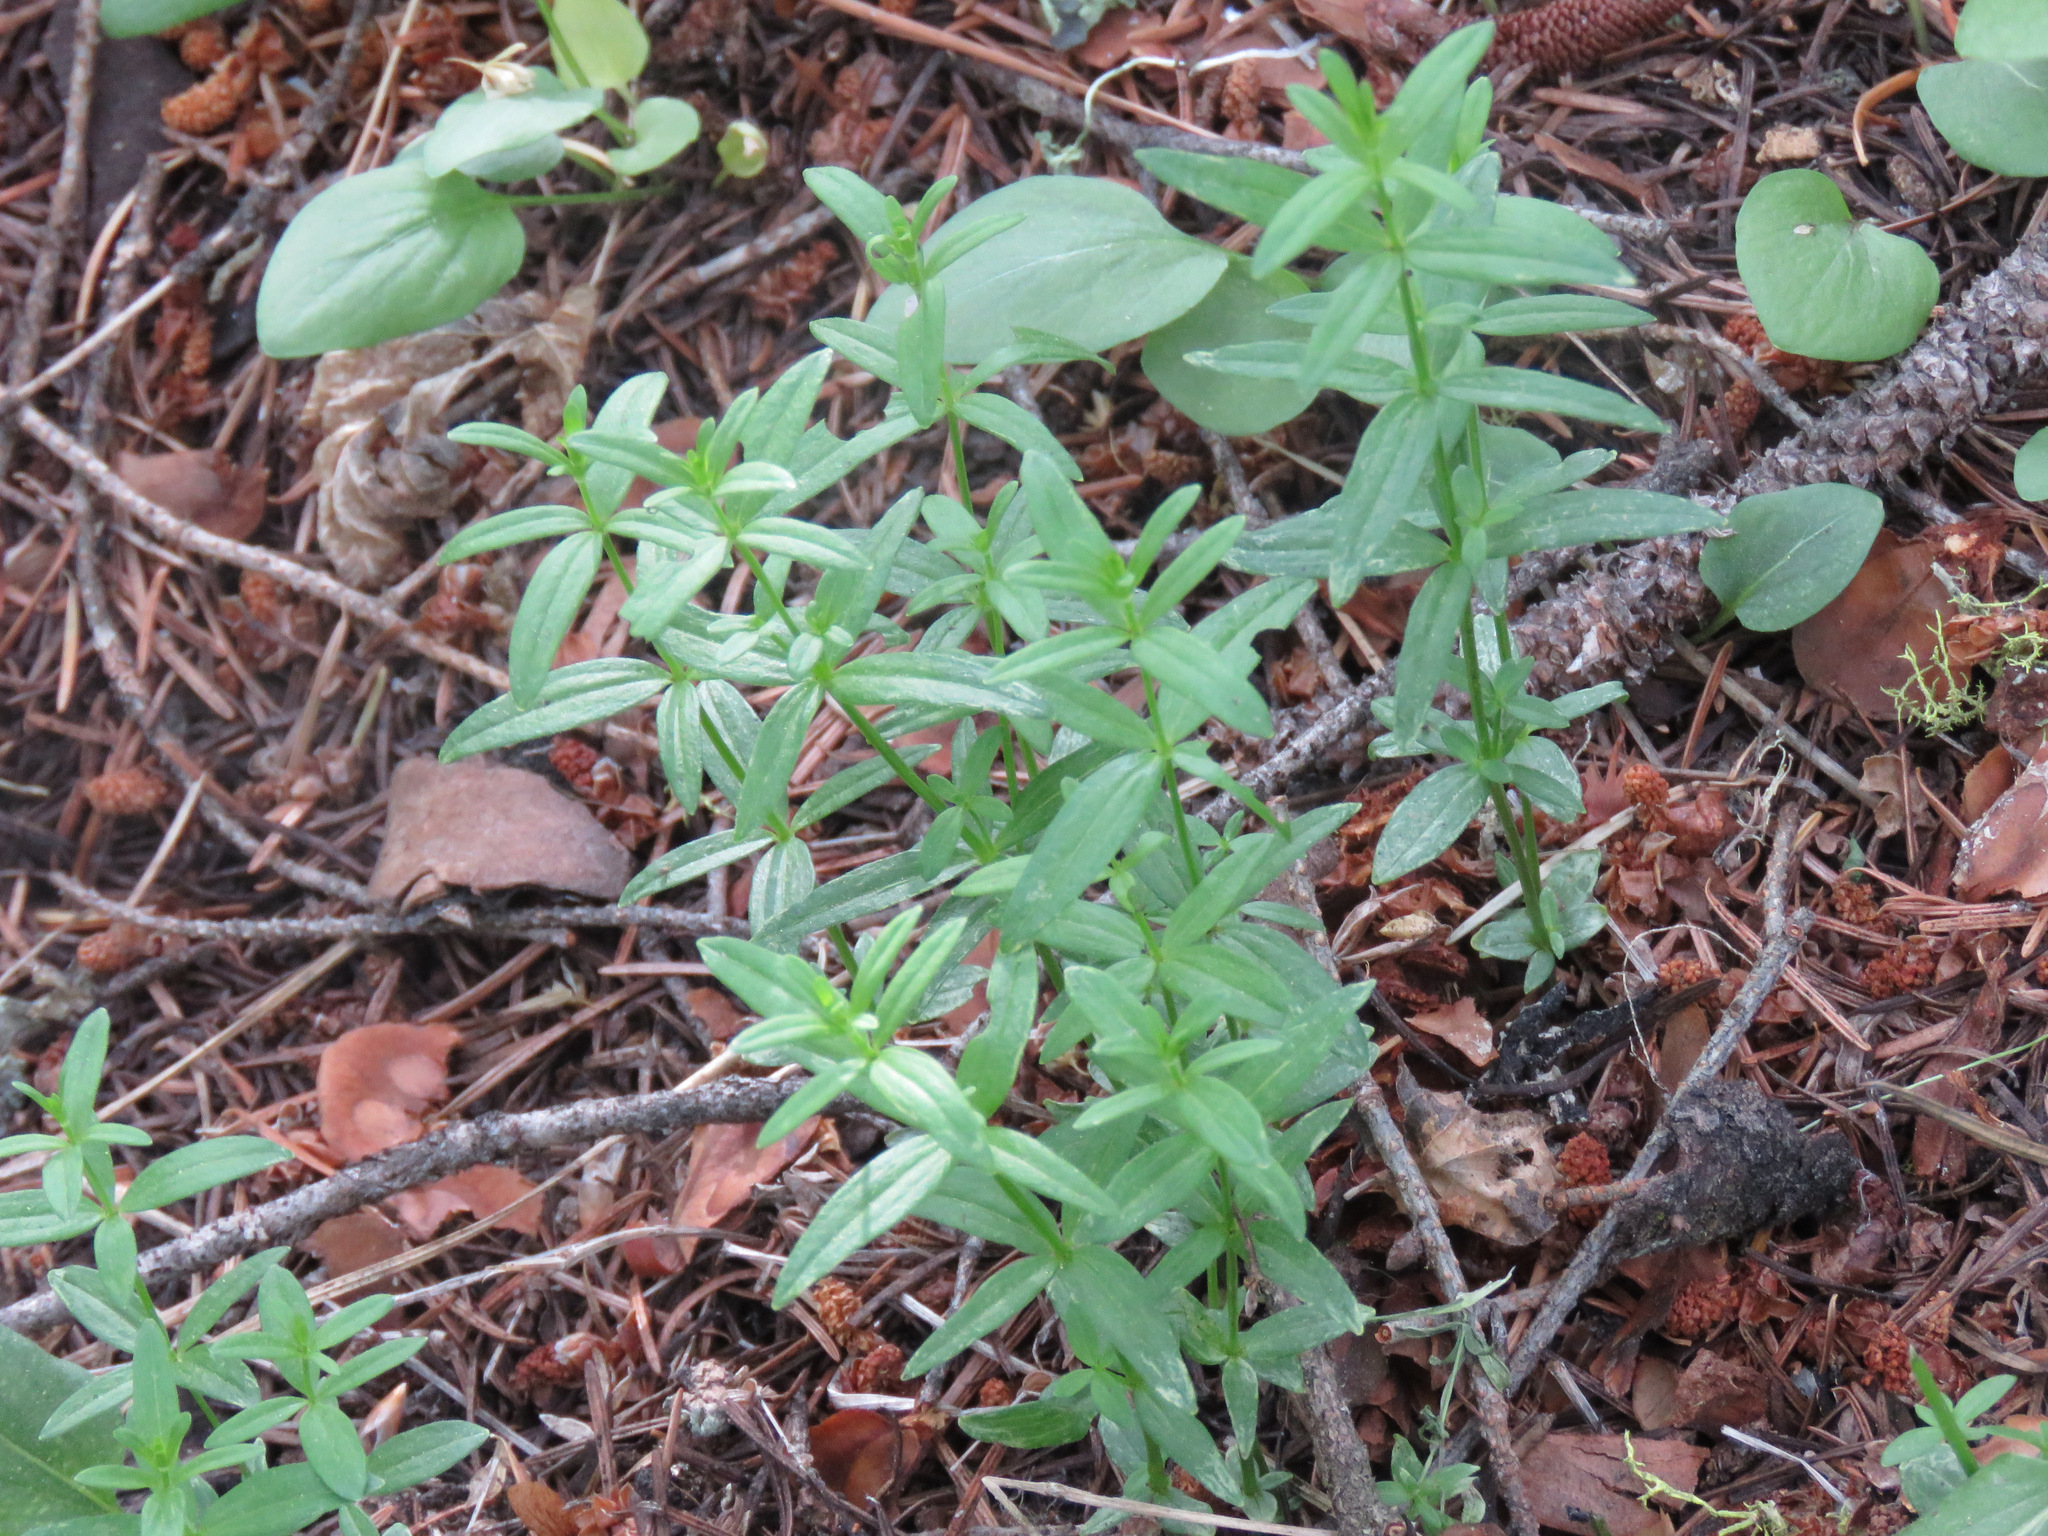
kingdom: Plantae
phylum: Tracheophyta
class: Magnoliopsida
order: Gentianales
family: Rubiaceae
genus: Galium
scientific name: Galium boreale
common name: Northern bedstraw
